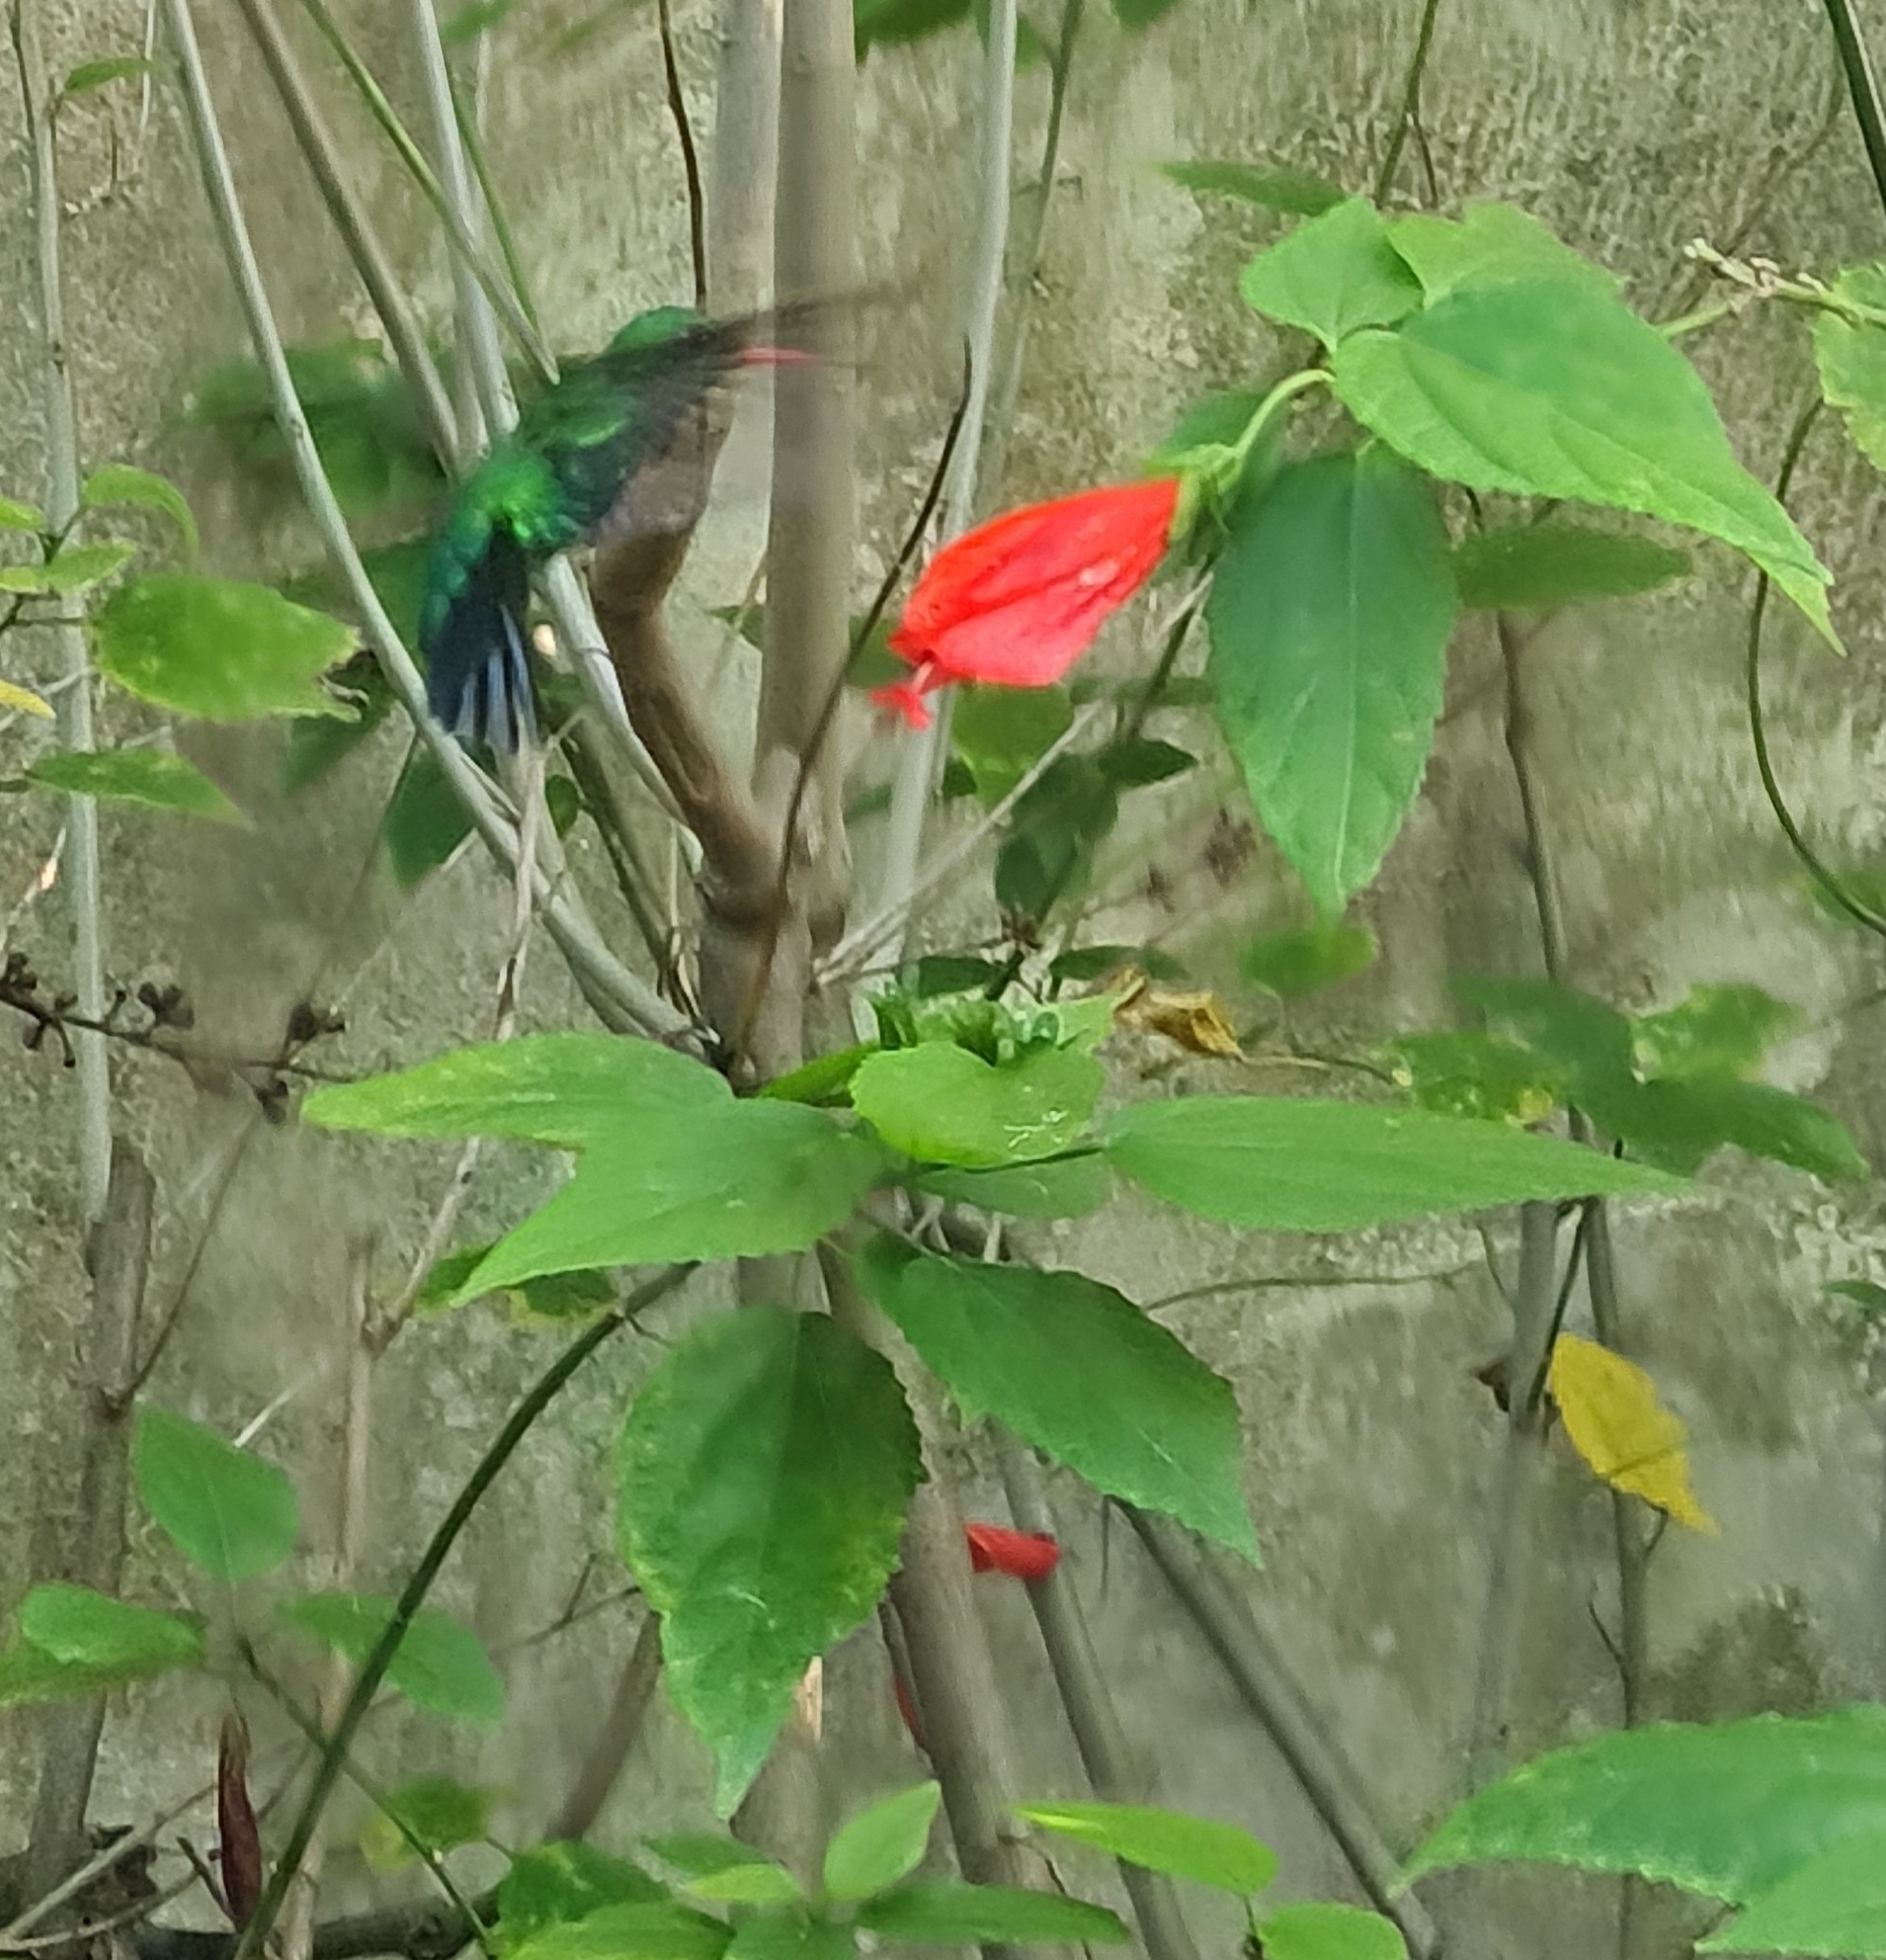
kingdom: Animalia
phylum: Chordata
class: Aves
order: Apodiformes
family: Trochilidae
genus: Chlorostilbon
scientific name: Chlorostilbon lucidus
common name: Glittering-bellied emerald
